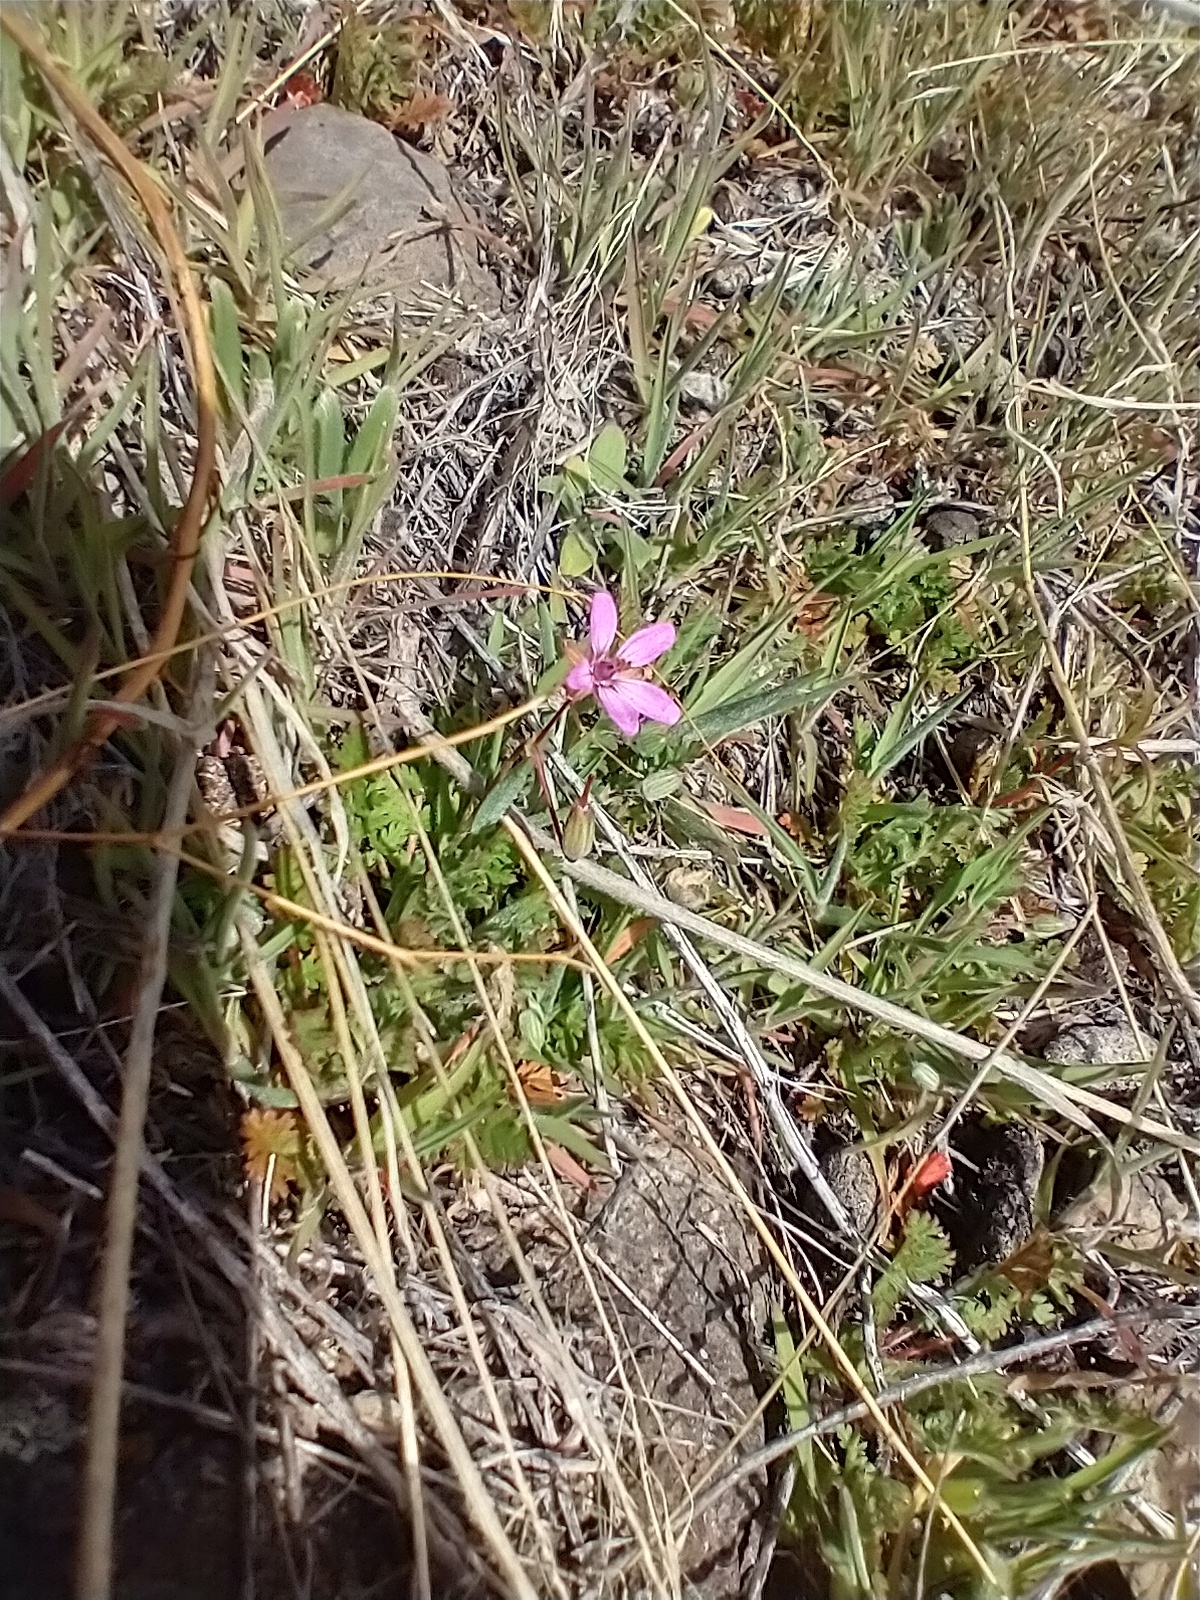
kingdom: Plantae
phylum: Tracheophyta
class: Magnoliopsida
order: Geraniales
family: Geraniaceae
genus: Erodium
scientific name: Erodium cicutarium
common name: Common stork's-bill
